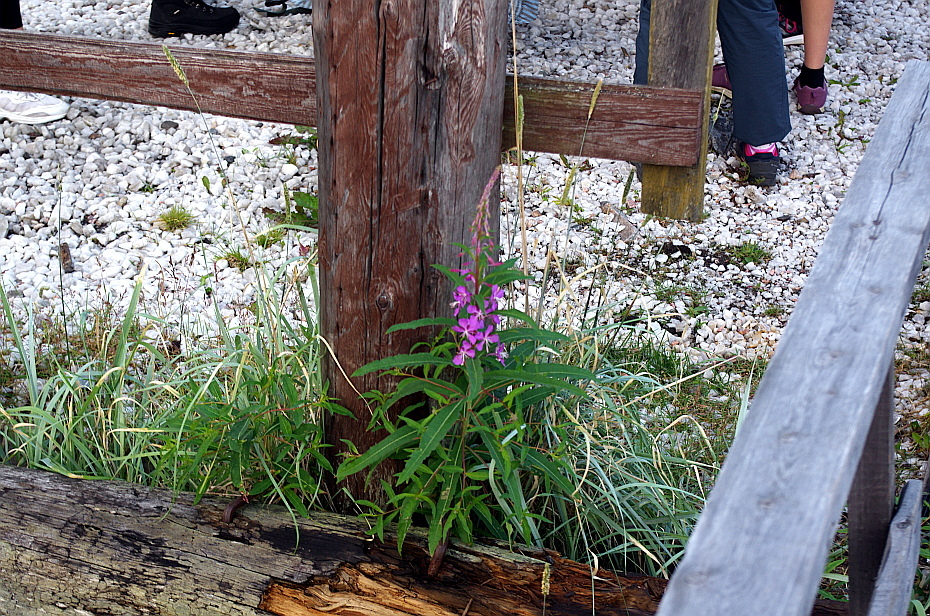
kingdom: Plantae
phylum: Tracheophyta
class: Magnoliopsida
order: Myrtales
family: Onagraceae
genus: Chamaenerion
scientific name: Chamaenerion angustifolium
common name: Fireweed
